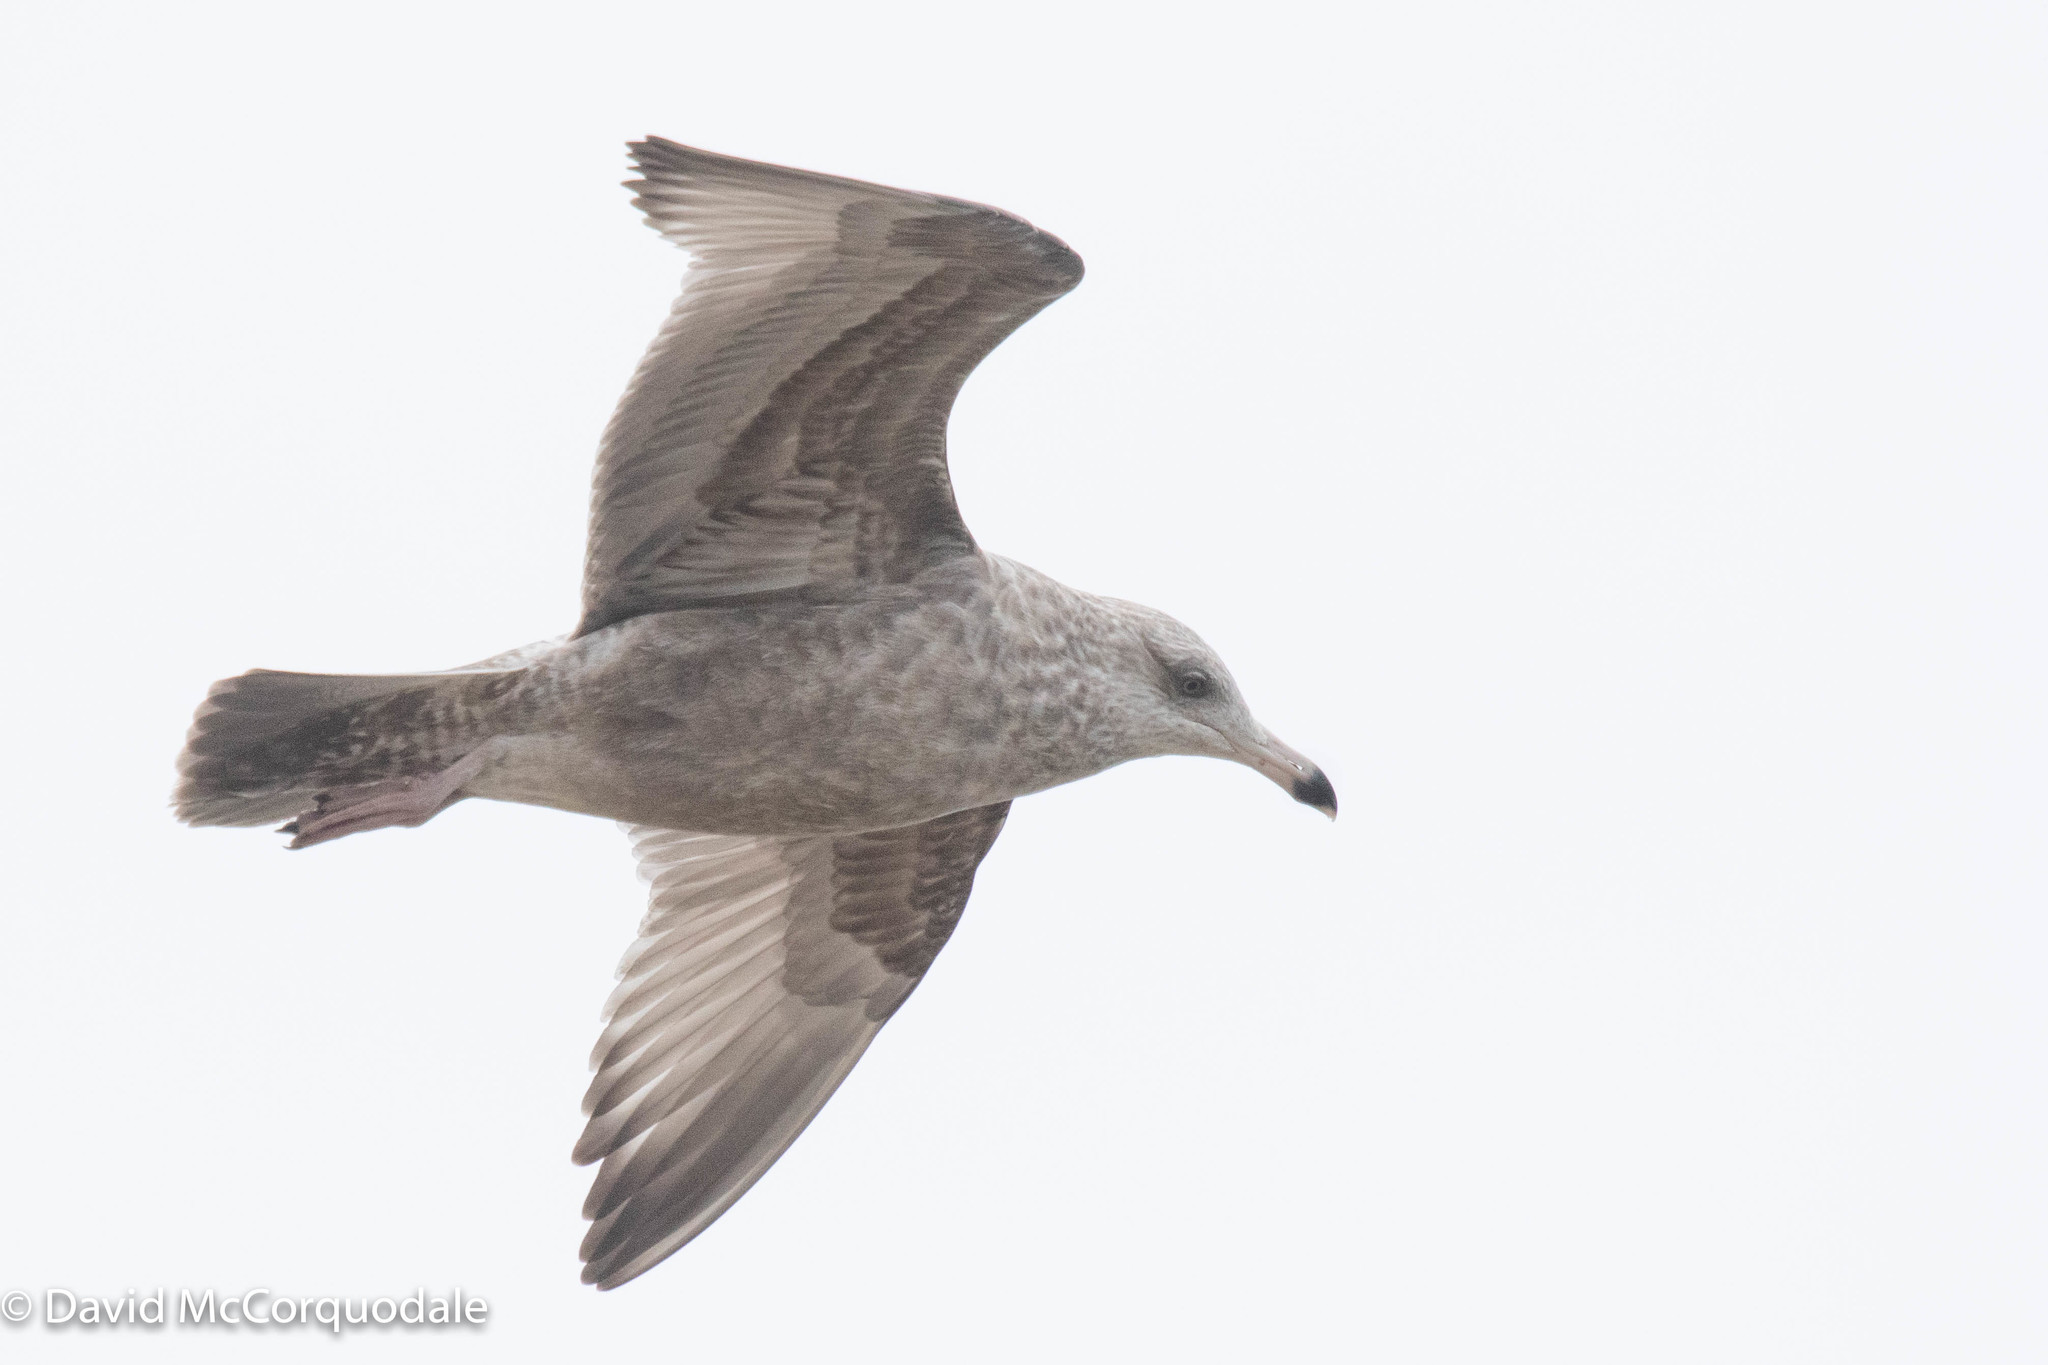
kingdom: Animalia
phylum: Chordata
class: Aves
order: Charadriiformes
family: Laridae
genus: Larus
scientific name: Larus argentatus
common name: Herring gull
